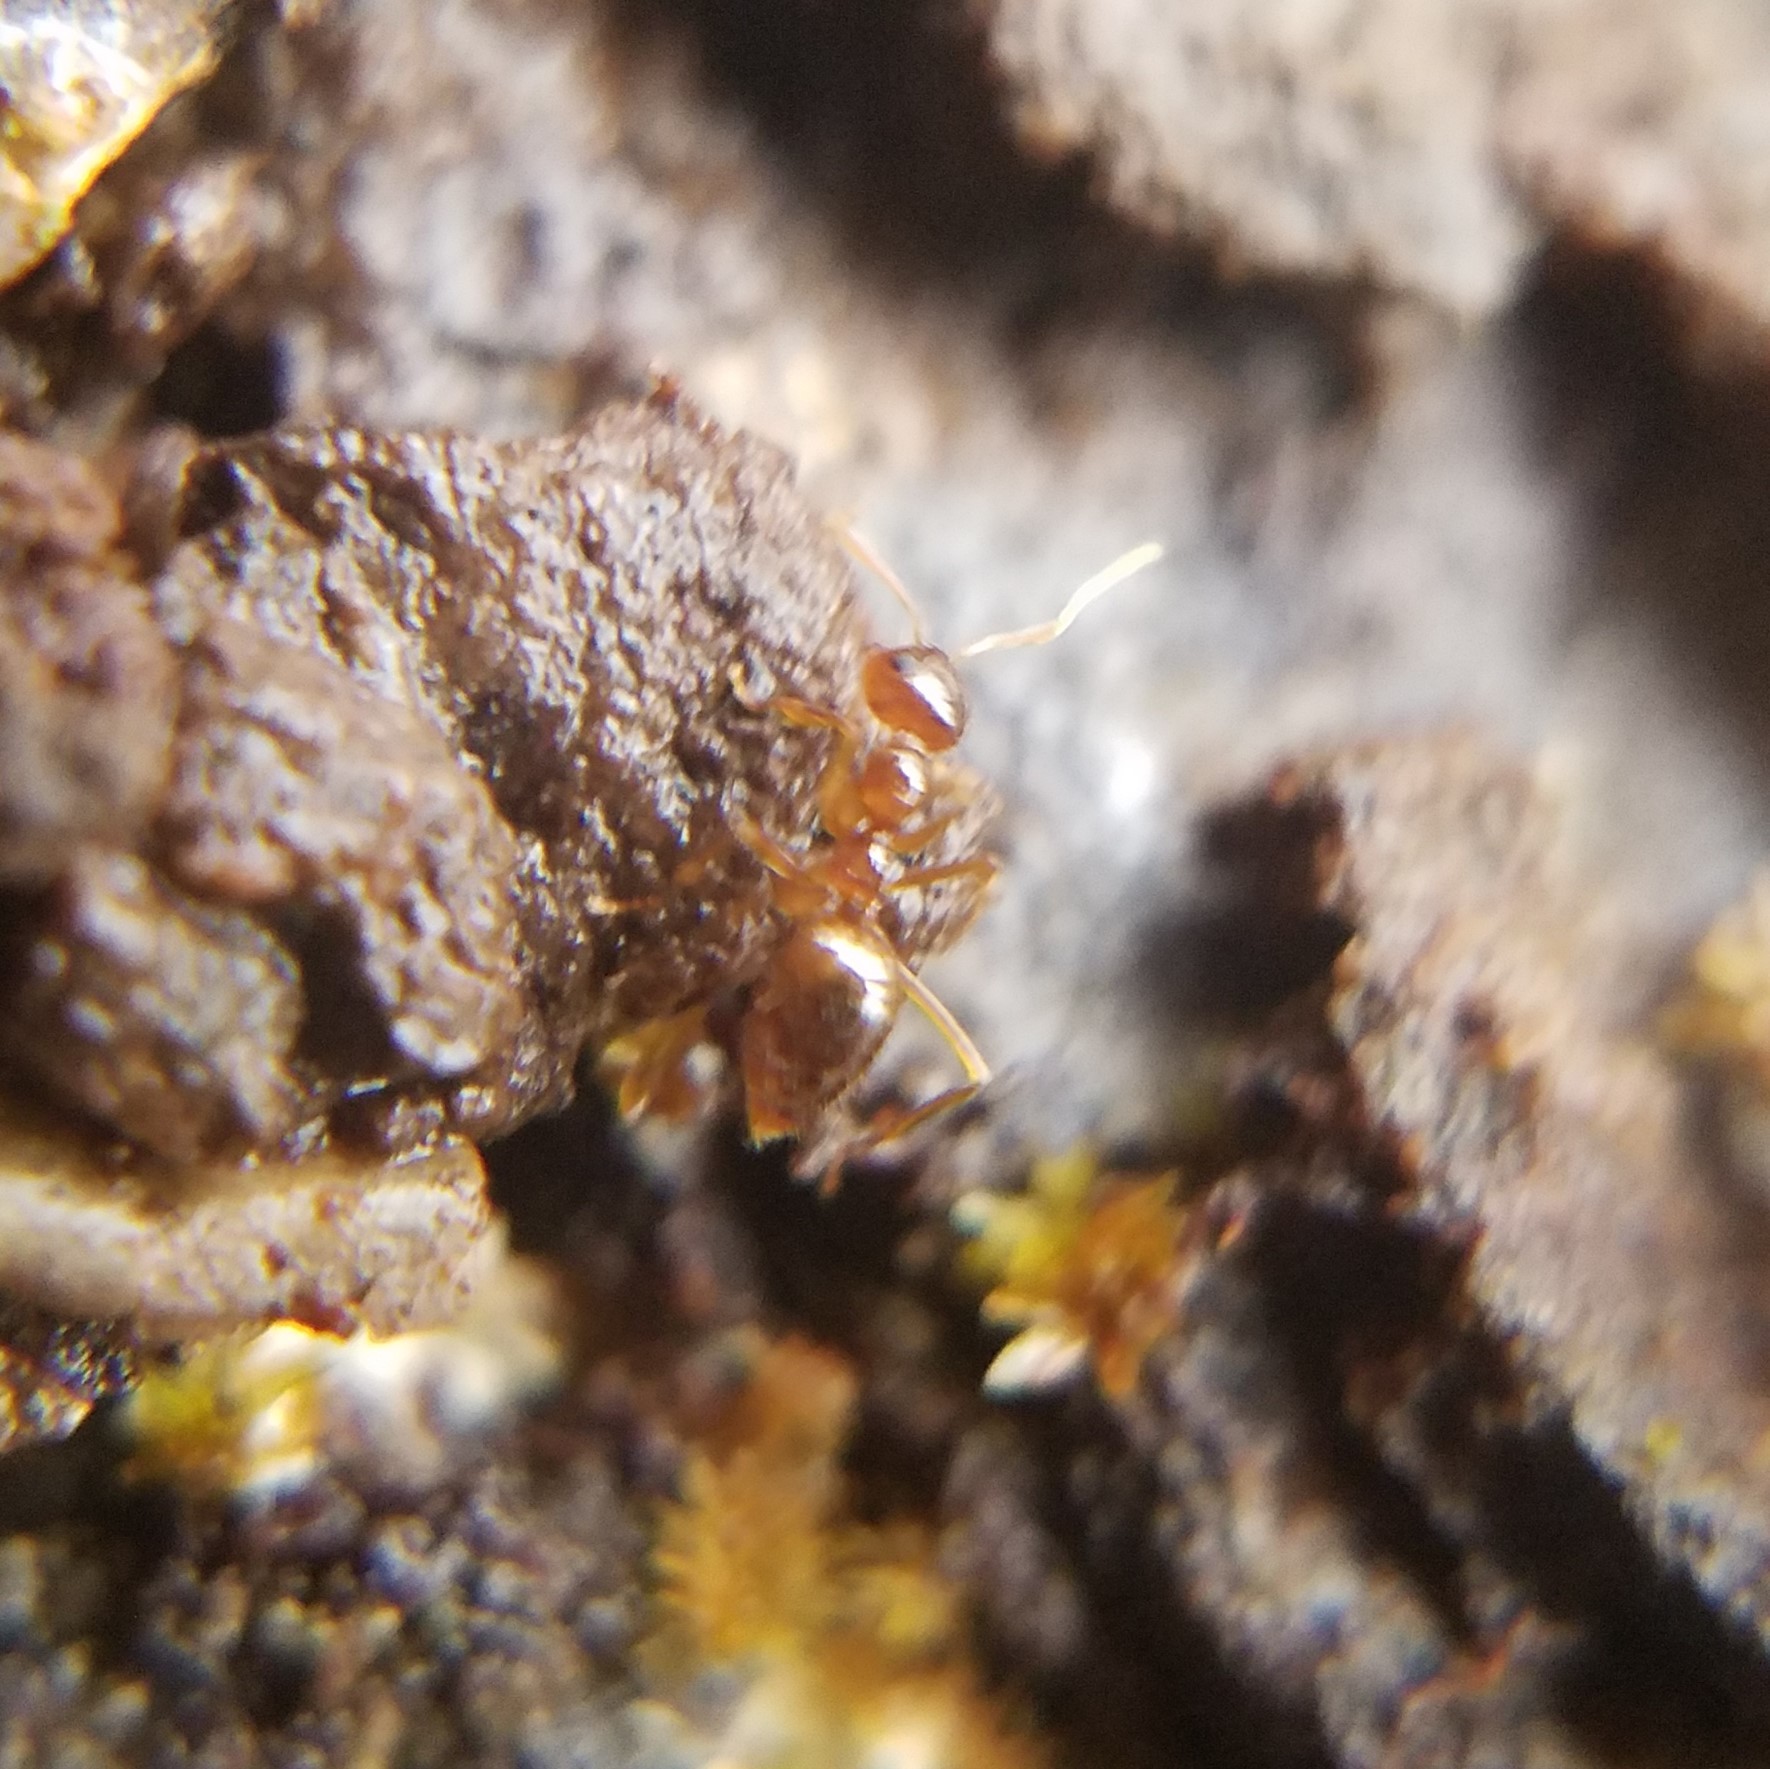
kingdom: Animalia
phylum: Arthropoda
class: Insecta
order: Hymenoptera
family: Formicidae
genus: Prenolepis
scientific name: Prenolepis imparis
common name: Small honey ant
